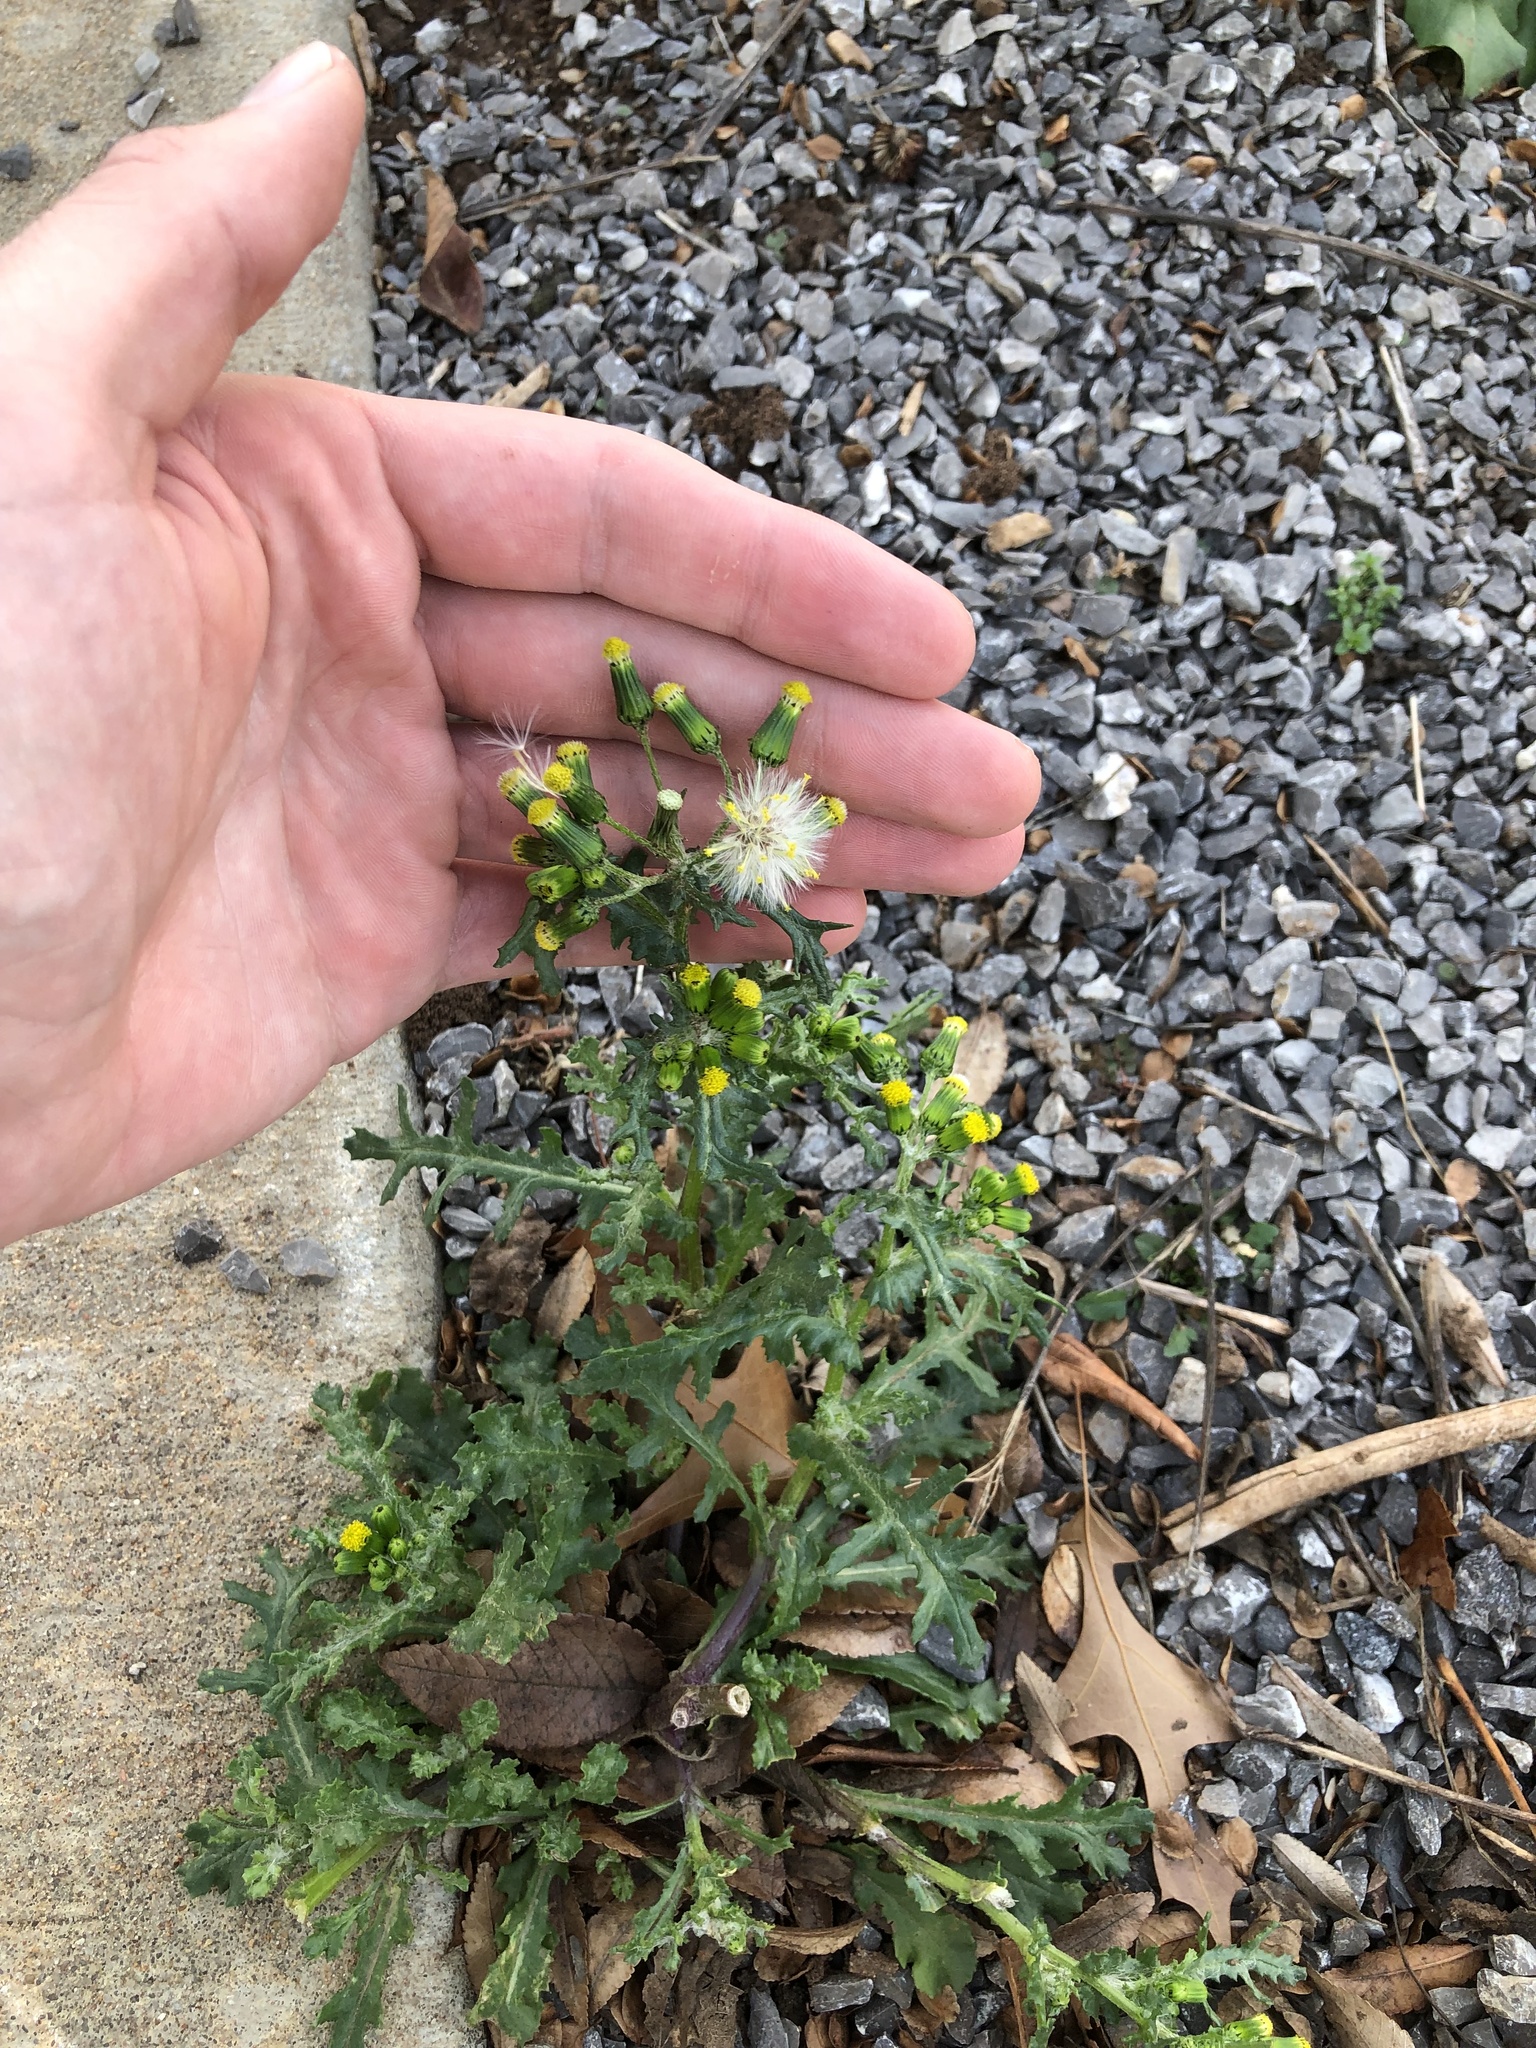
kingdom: Plantae
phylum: Tracheophyta
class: Magnoliopsida
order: Asterales
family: Asteraceae
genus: Senecio
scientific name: Senecio vulgaris
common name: Old-man-in-the-spring
